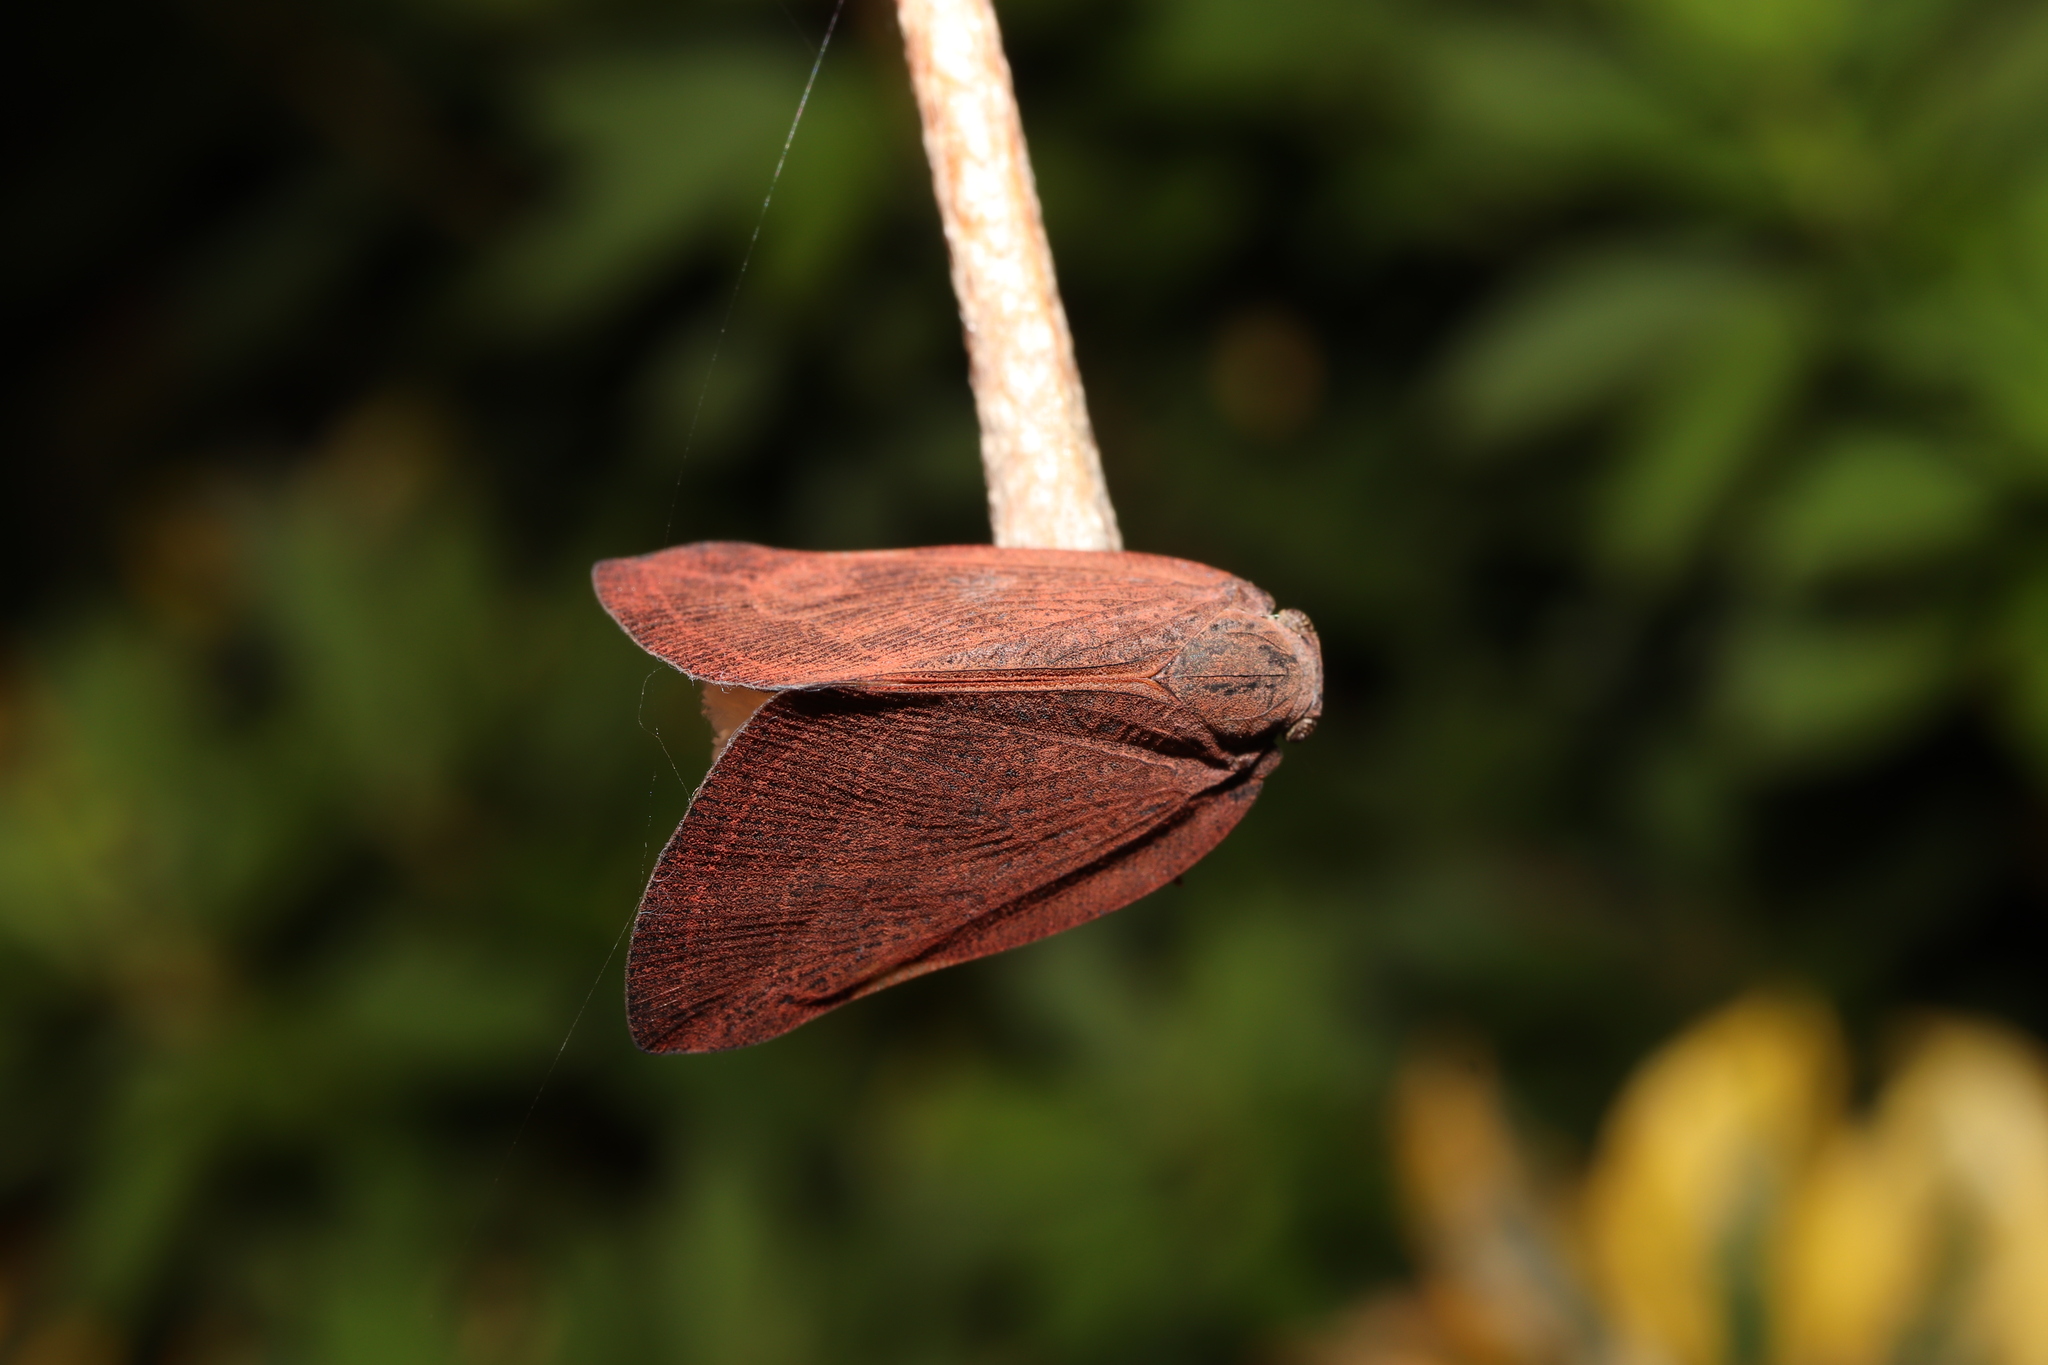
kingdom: Animalia
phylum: Arthropoda
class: Insecta
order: Hemiptera
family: Ricaniidae
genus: Ricania
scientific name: Ricania shantungensis
